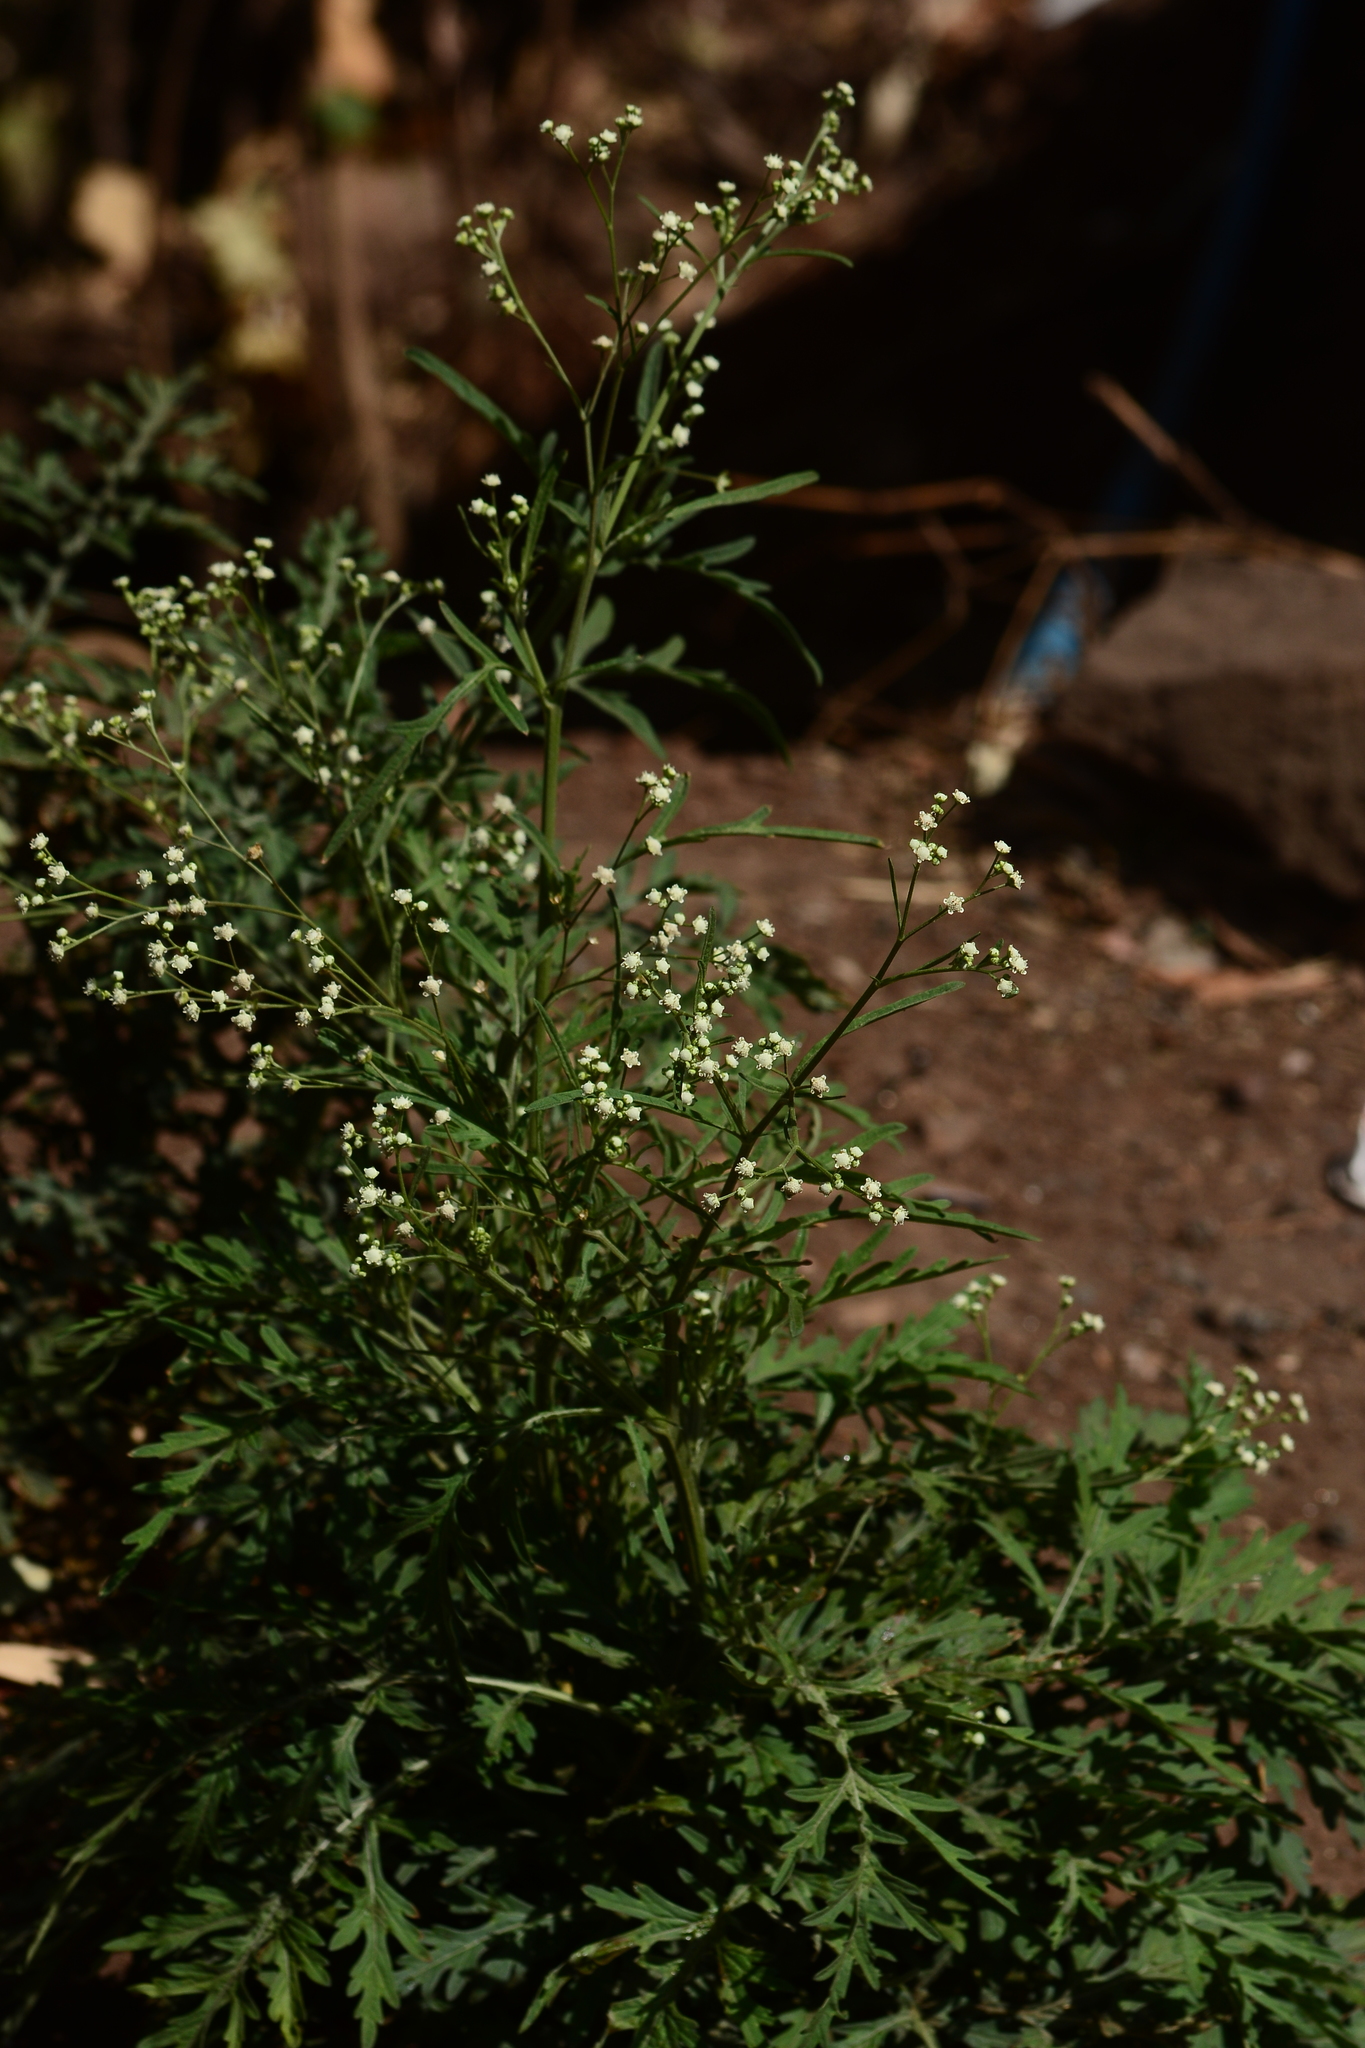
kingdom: Plantae
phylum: Tracheophyta
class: Magnoliopsida
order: Asterales
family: Asteraceae
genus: Parthenium
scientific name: Parthenium hysterophorus
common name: Santa maria feverfew
